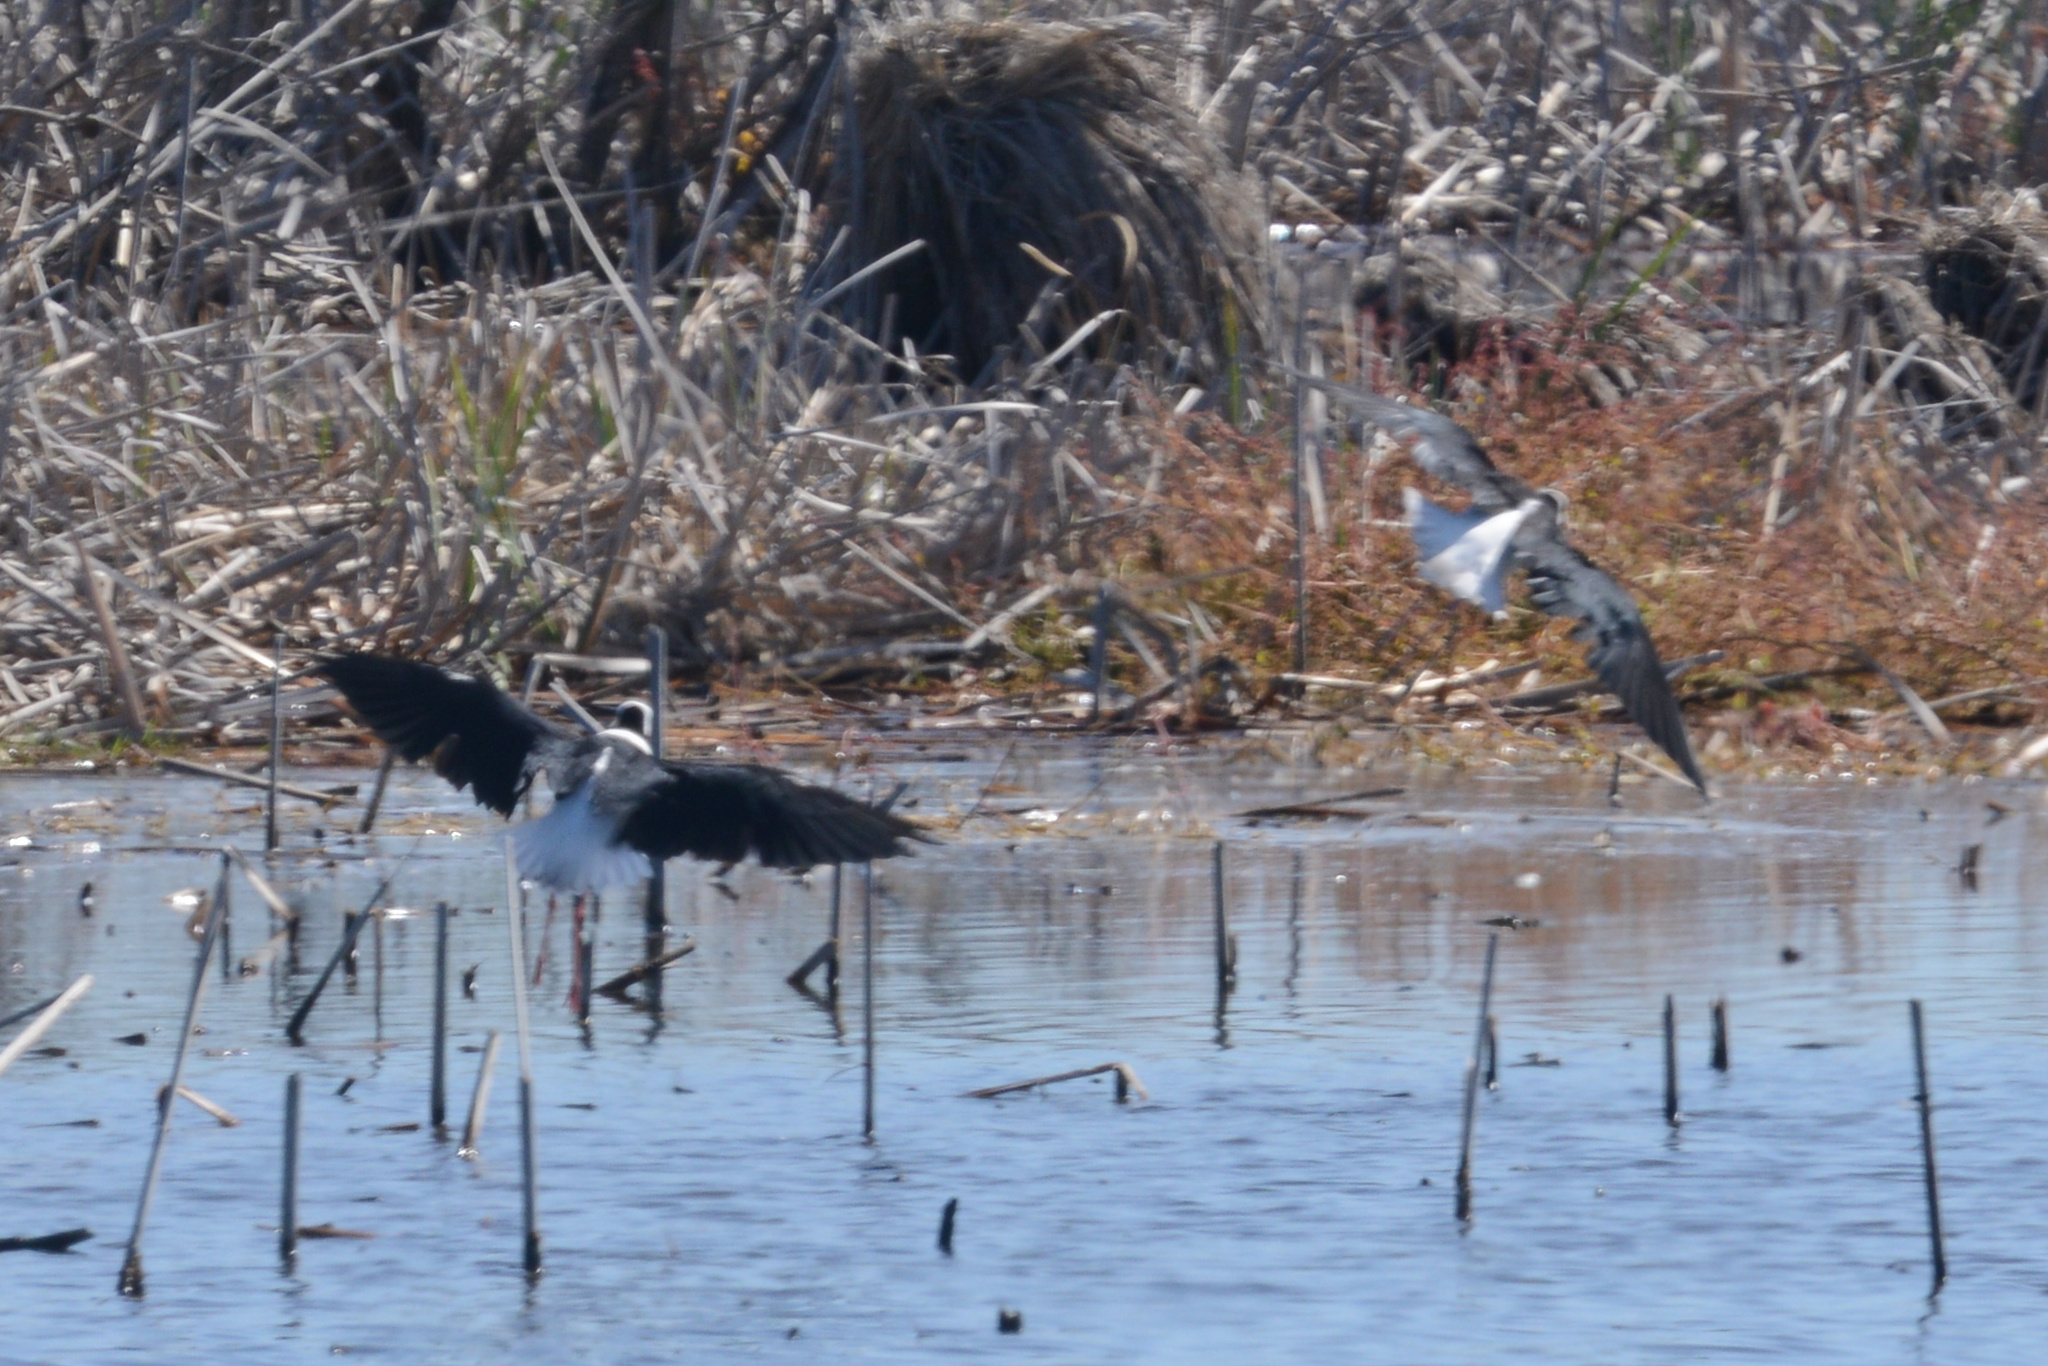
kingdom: Animalia
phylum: Chordata
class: Aves
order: Charadriiformes
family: Recurvirostridae
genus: Himantopus
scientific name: Himantopus leucocephalus
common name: White-headed stilt
